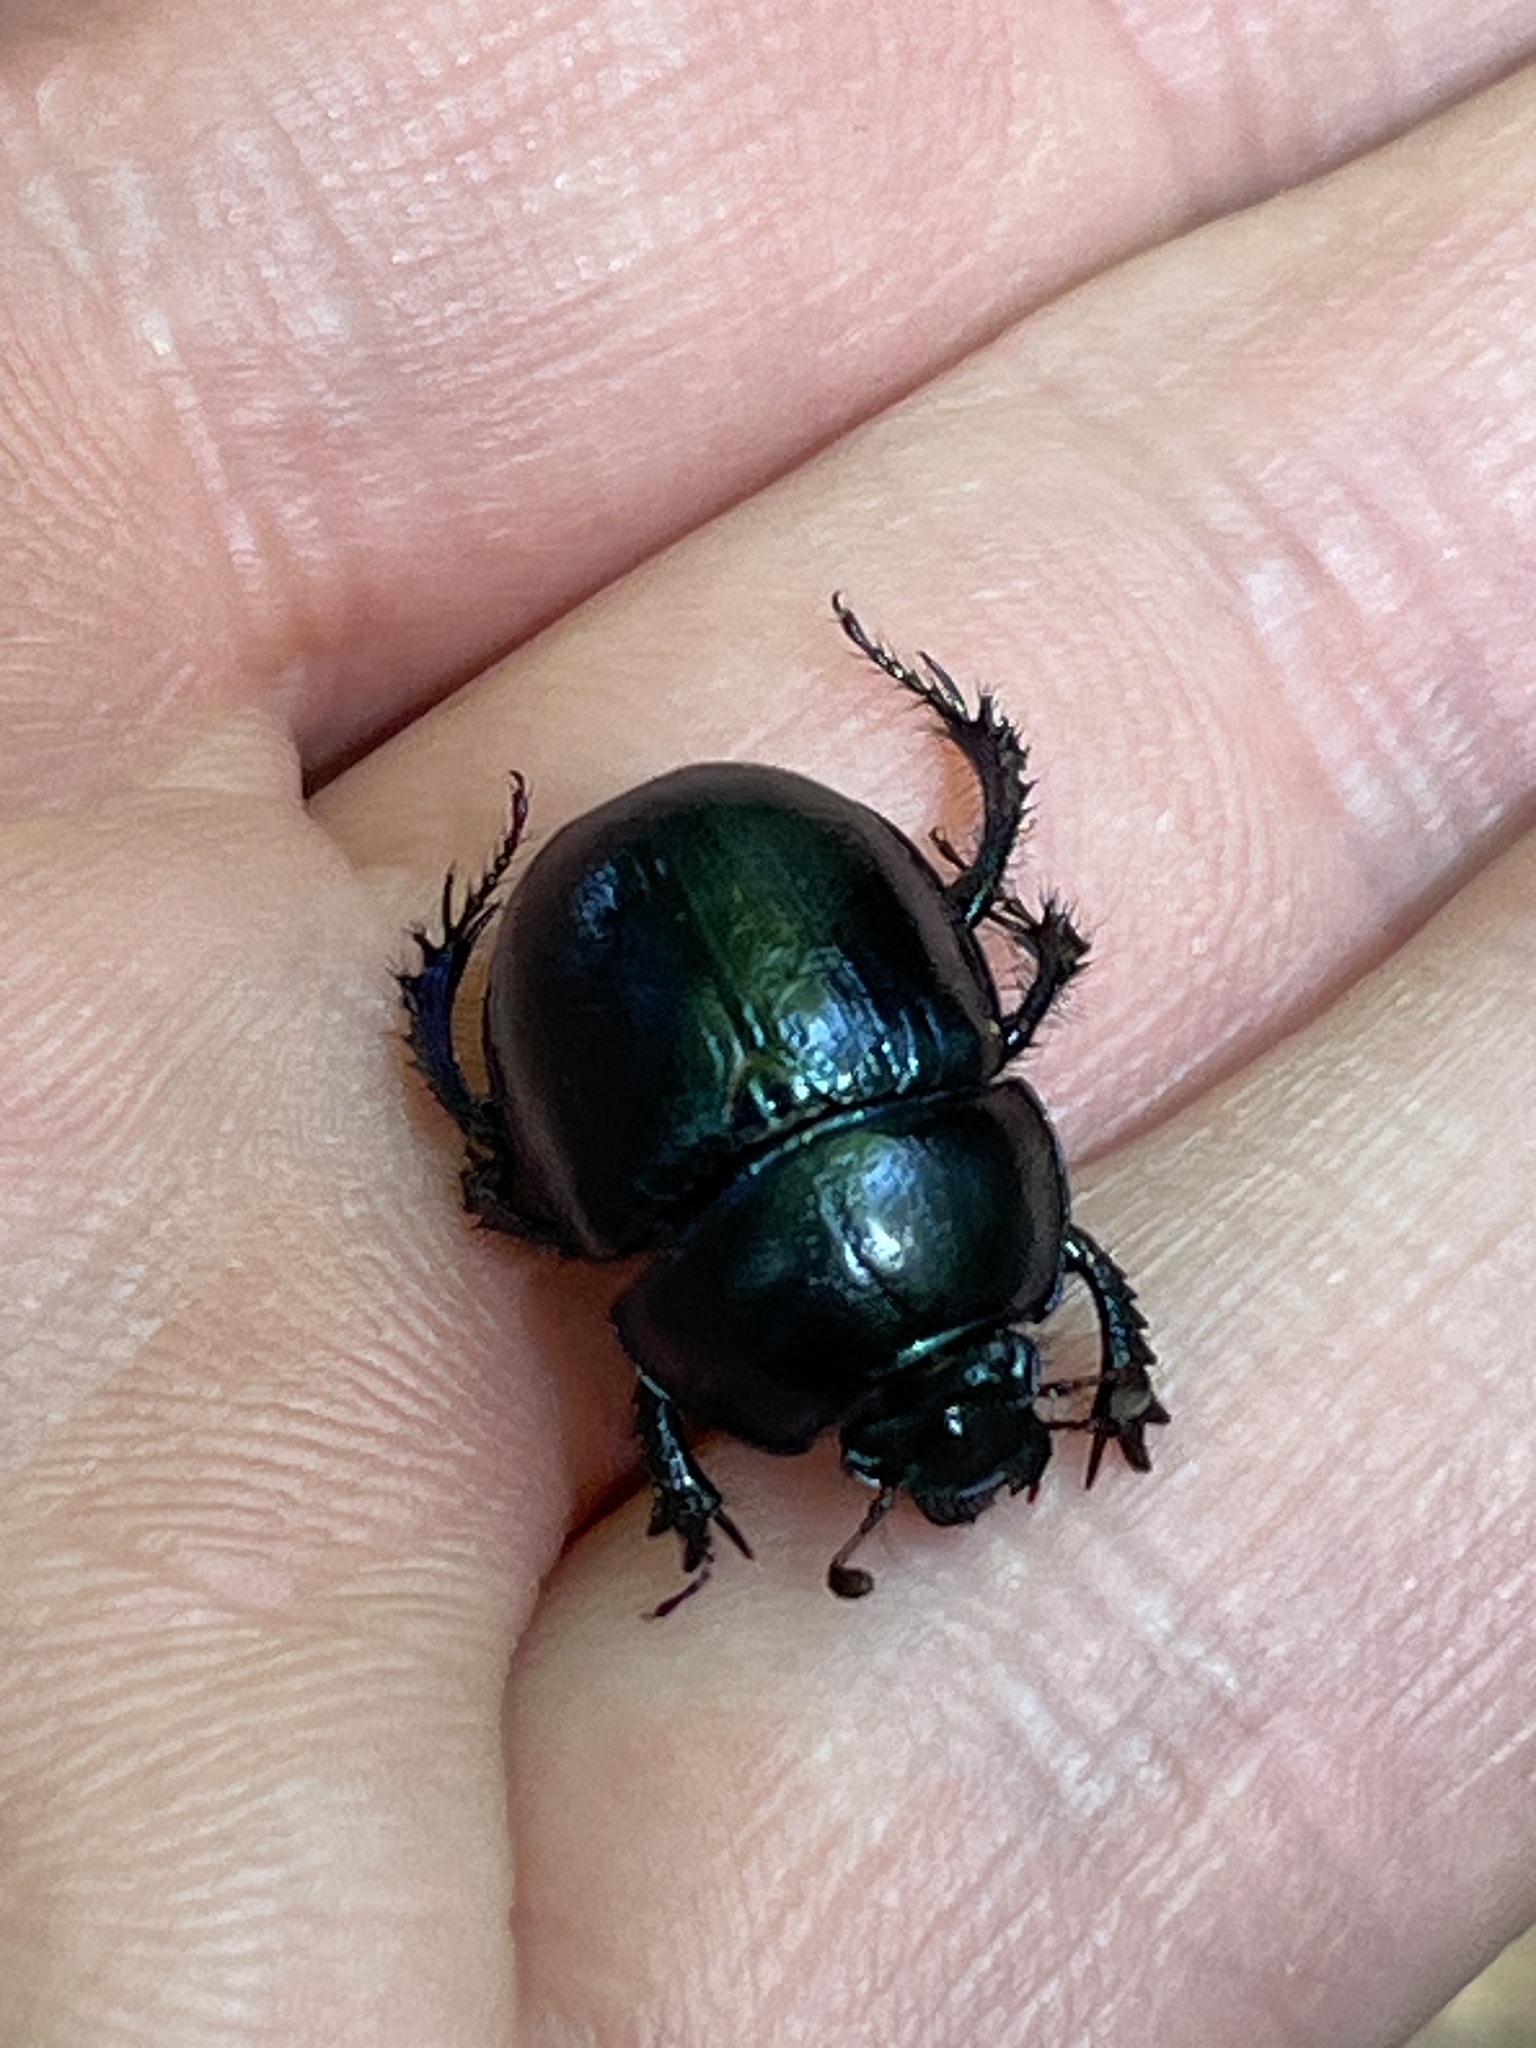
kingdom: Animalia
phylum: Arthropoda
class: Insecta
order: Coleoptera
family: Geotrupidae
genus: Anoplotrupes
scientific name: Anoplotrupes stercorosus
